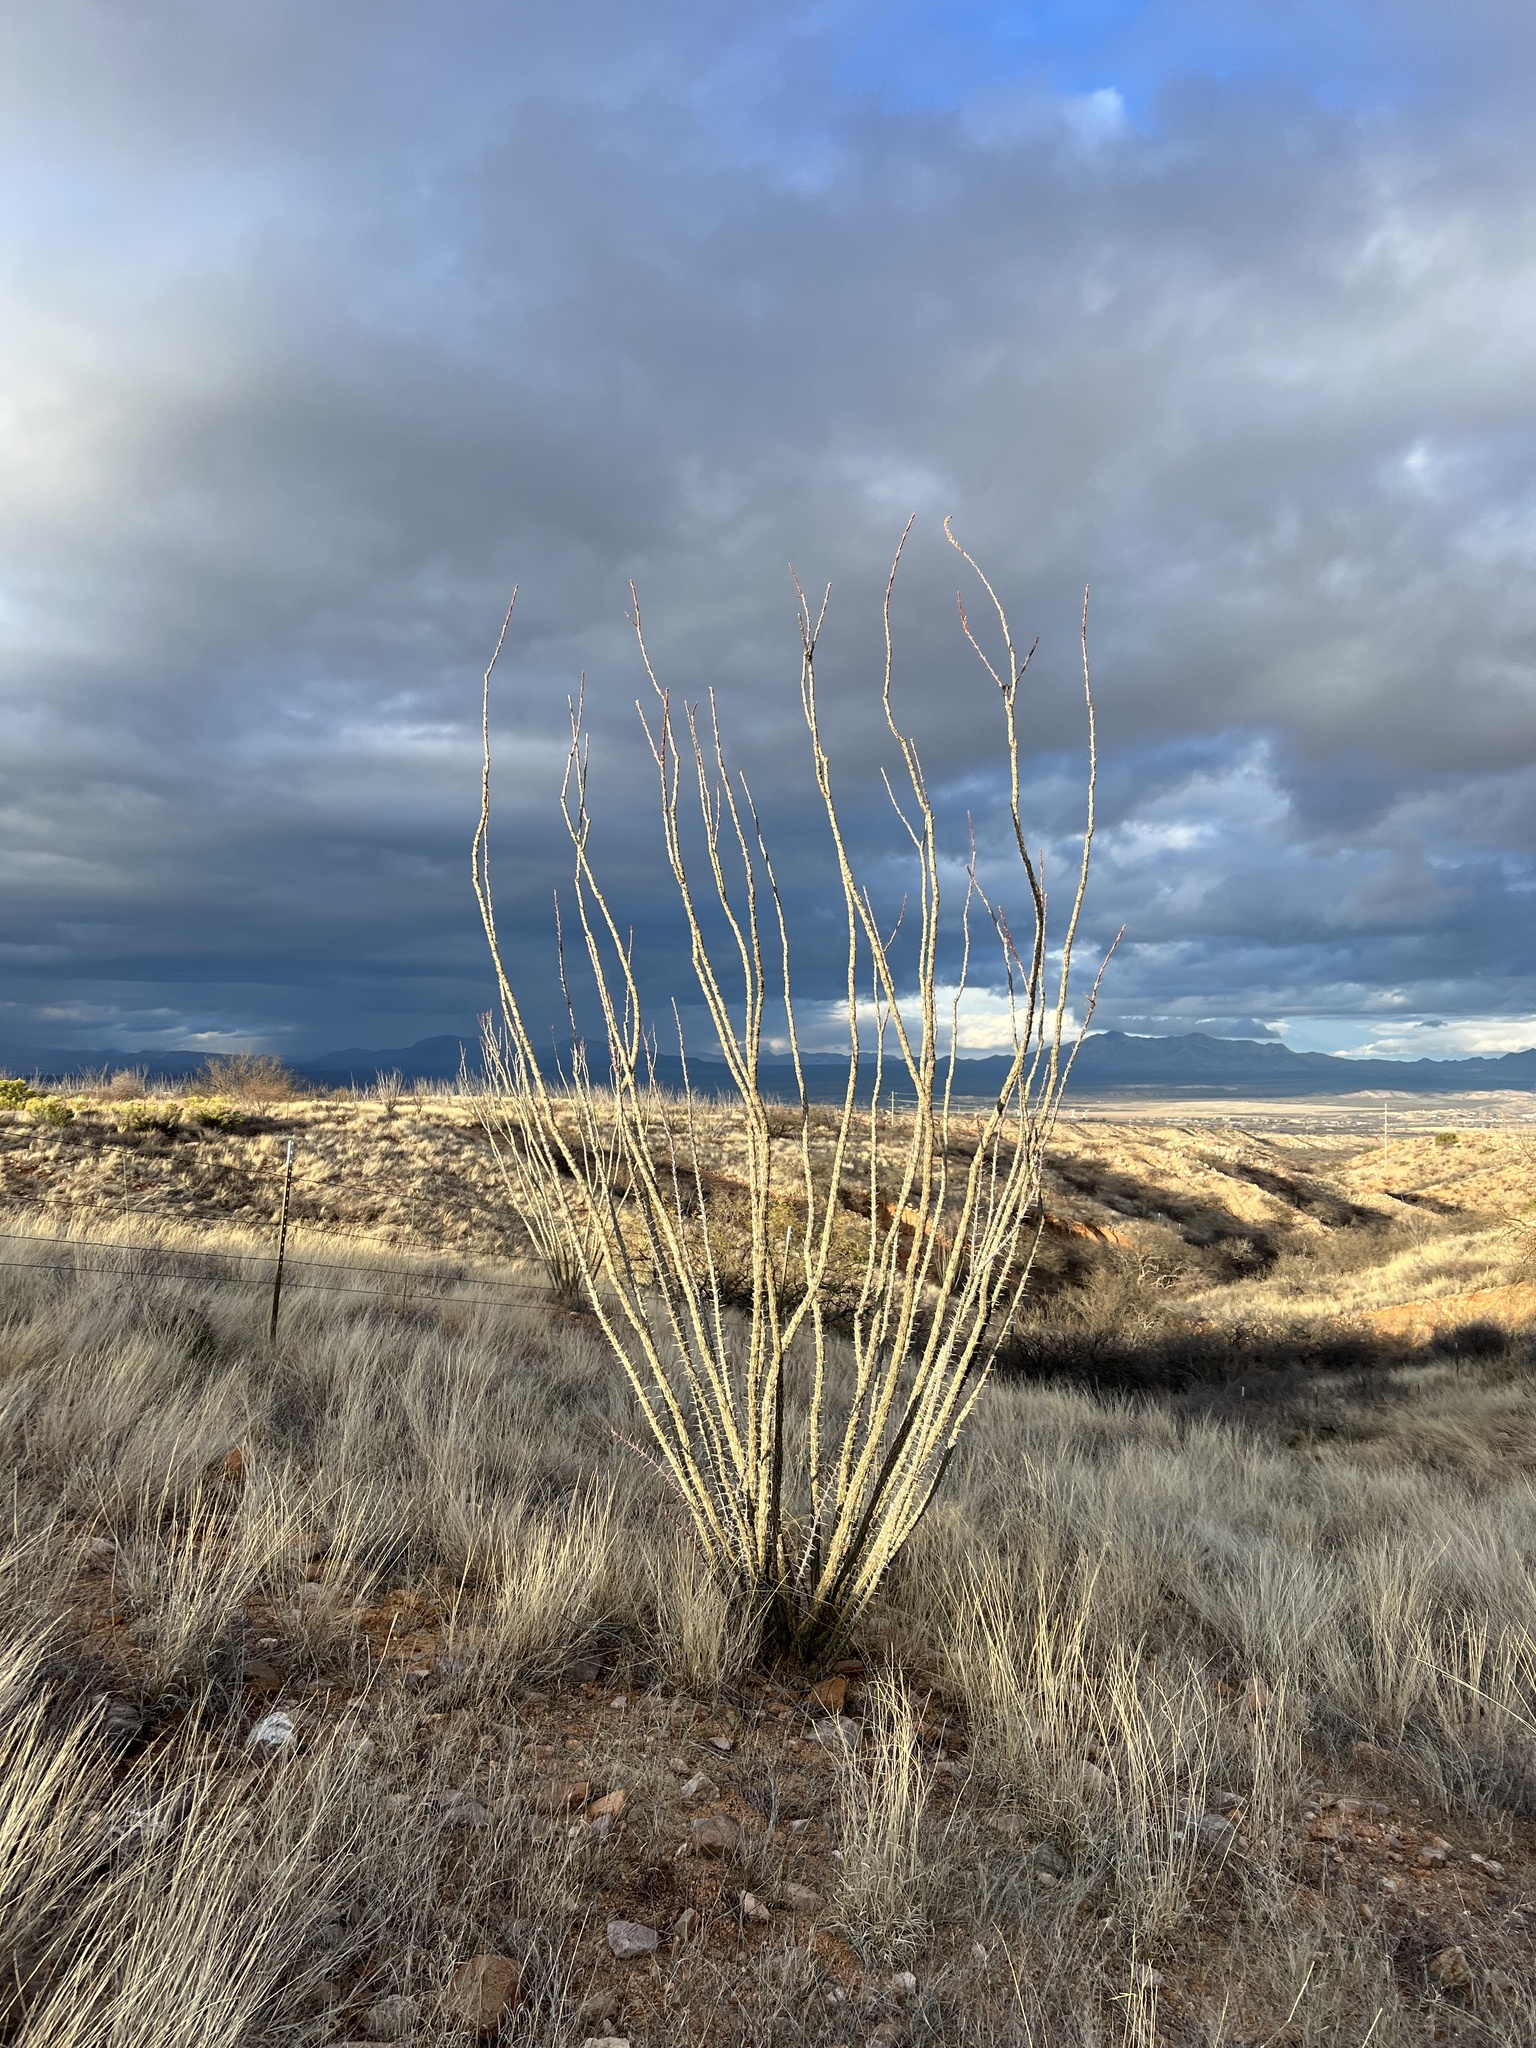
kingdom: Plantae
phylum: Tracheophyta
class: Magnoliopsida
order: Ericales
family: Fouquieriaceae
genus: Fouquieria
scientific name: Fouquieria splendens
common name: Vine-cactus
